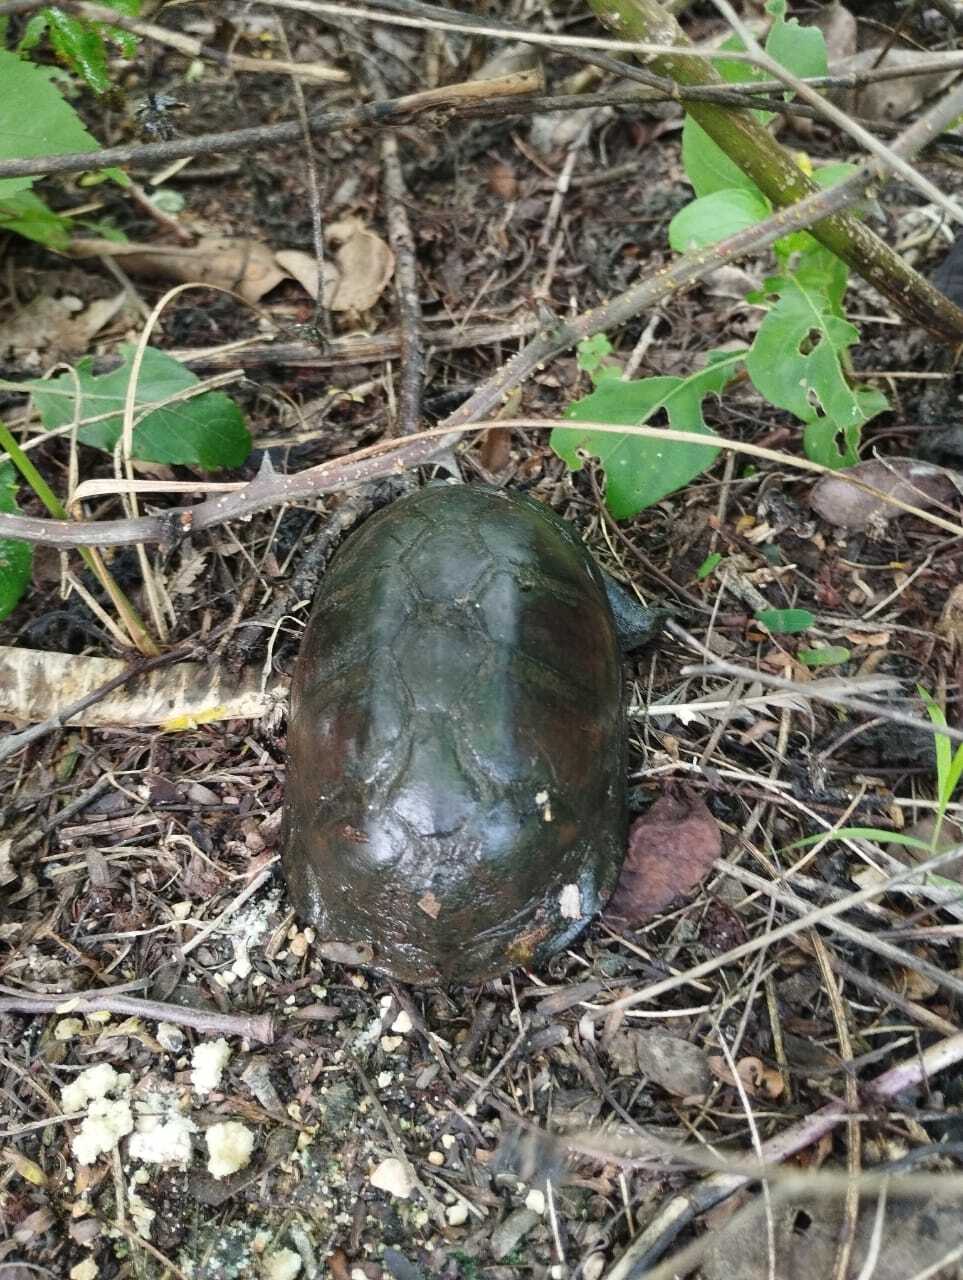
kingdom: Animalia
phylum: Chordata
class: Testudines
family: Kinosternidae
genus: Kinosternon
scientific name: Kinosternon scorpioides
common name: Scorpion mud turtle
